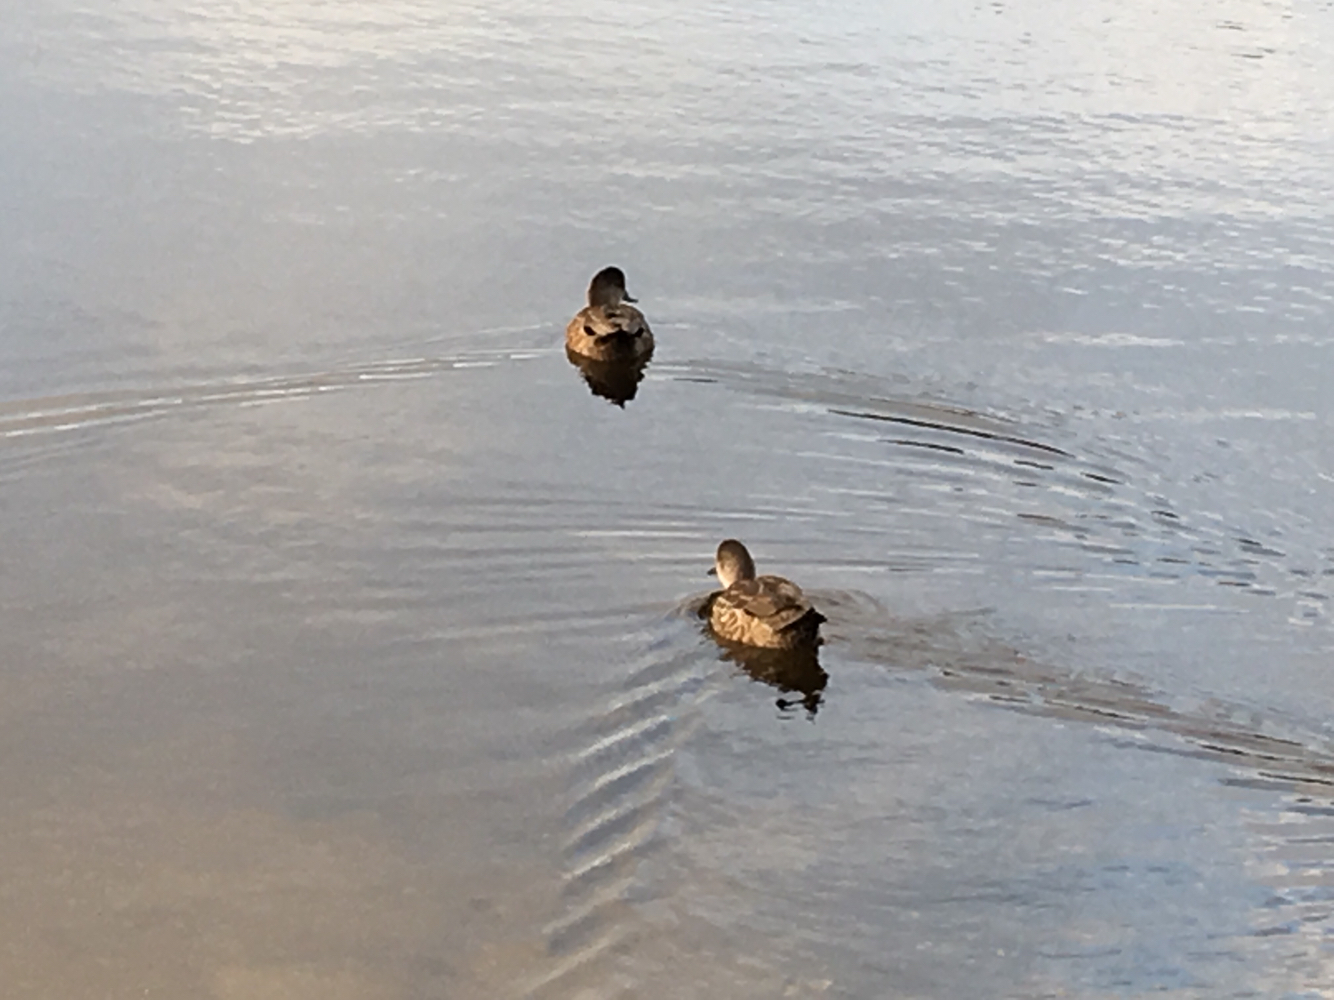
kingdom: Animalia
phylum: Chordata
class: Aves
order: Anseriformes
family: Anatidae
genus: Anas
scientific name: Anas gracilis
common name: Grey teal
